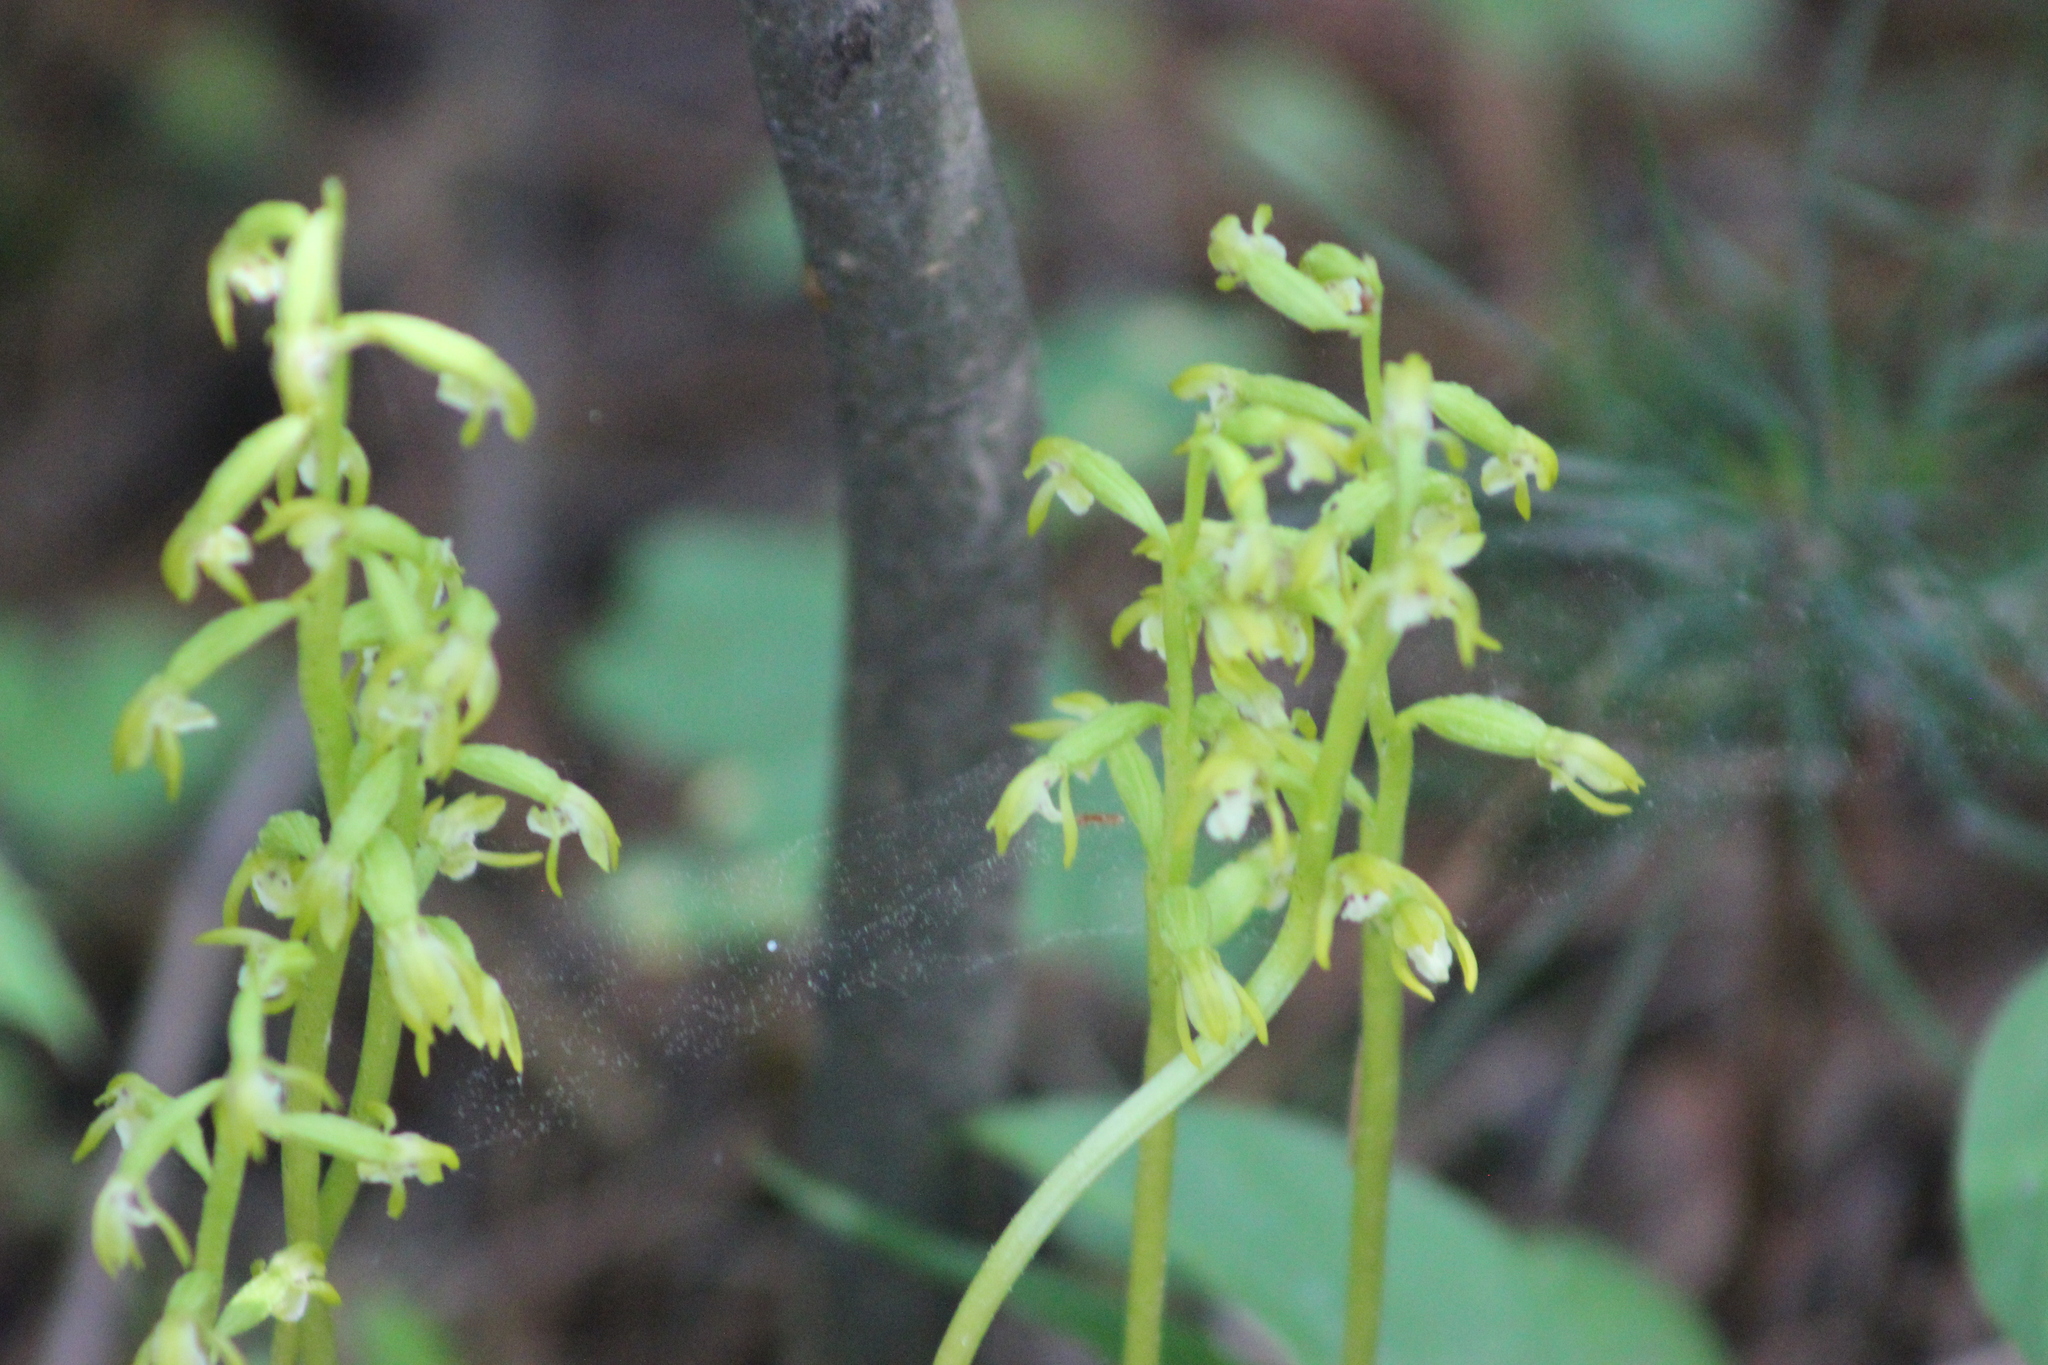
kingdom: Plantae
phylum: Tracheophyta
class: Liliopsida
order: Asparagales
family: Orchidaceae
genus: Corallorhiza
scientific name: Corallorhiza trifida
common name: Yellow coralroot
